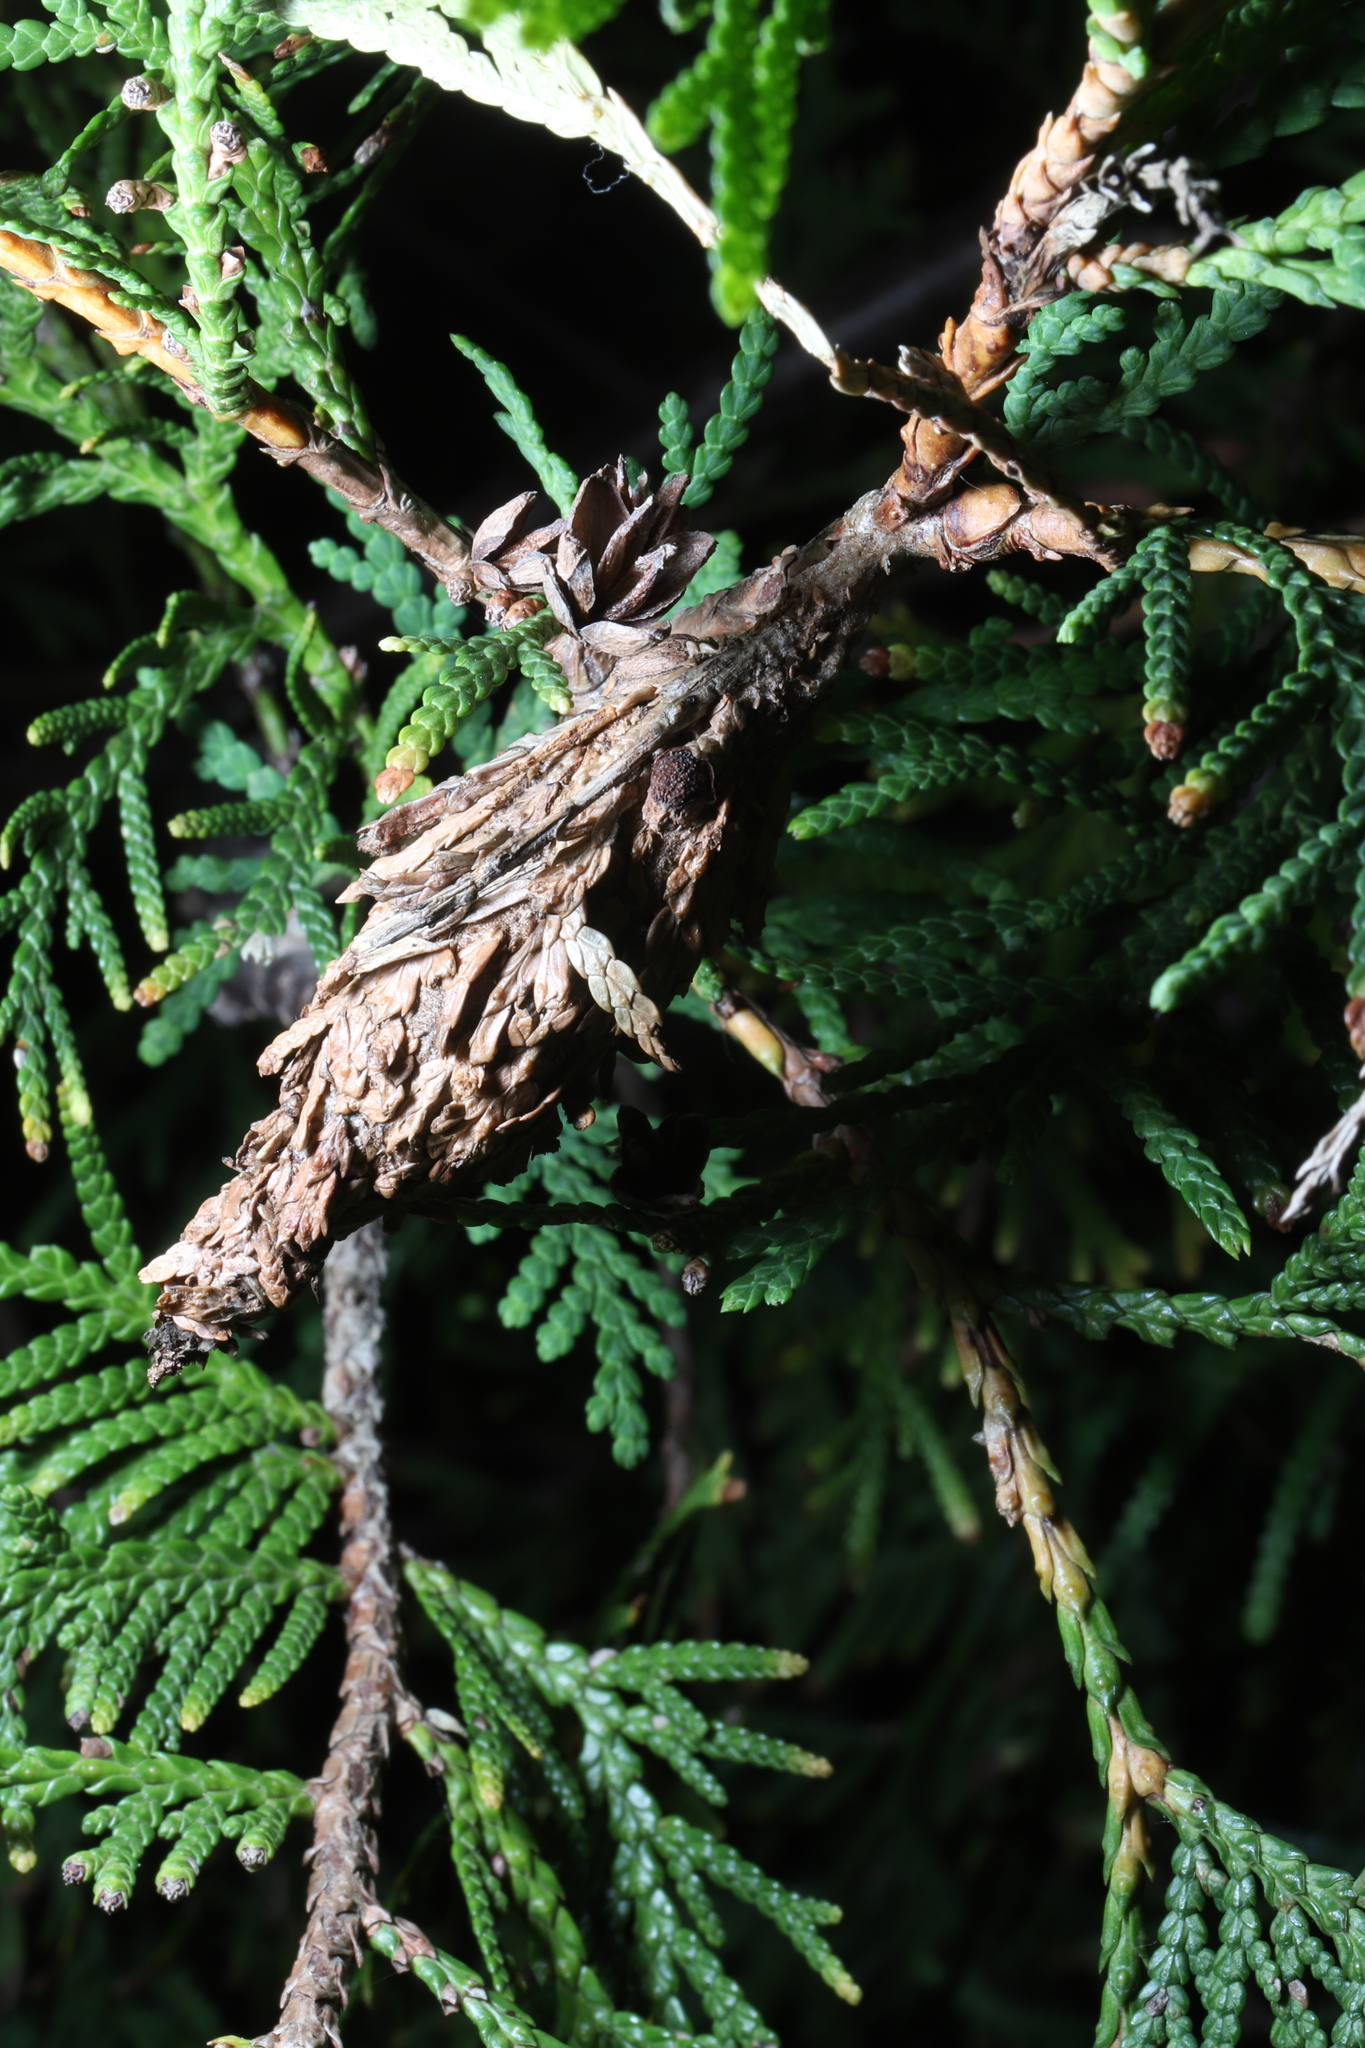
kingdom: Animalia
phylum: Arthropoda
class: Insecta
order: Lepidoptera
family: Psychidae
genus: Thyridopteryx
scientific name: Thyridopteryx ephemeraeformis
